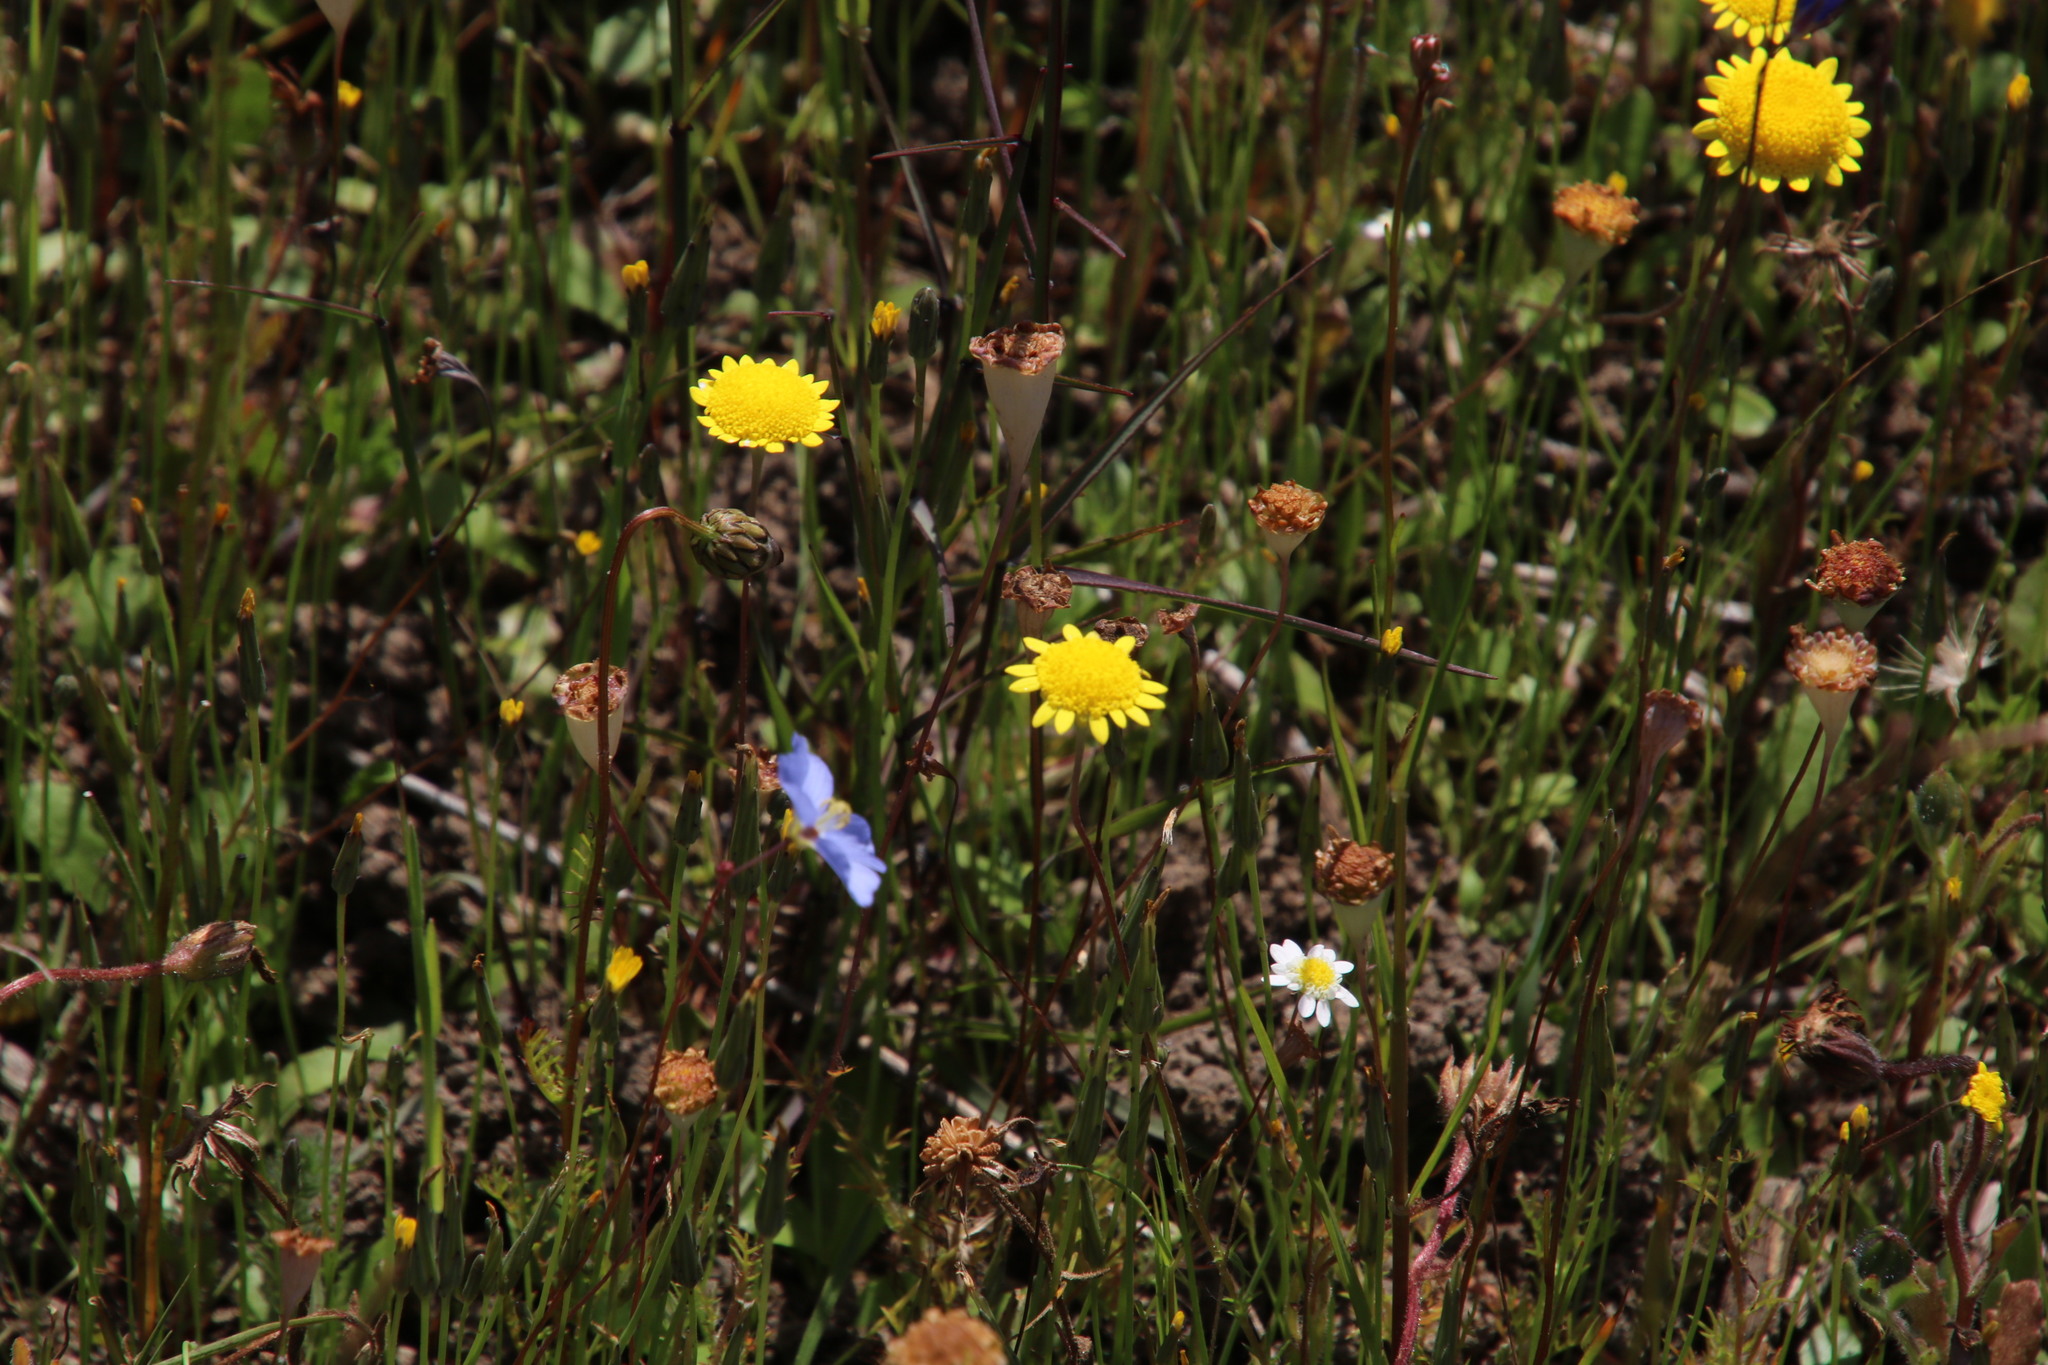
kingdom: Plantae
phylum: Tracheophyta
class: Magnoliopsida
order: Asterales
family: Asteraceae
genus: Cotula
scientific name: Cotula pruinosa
